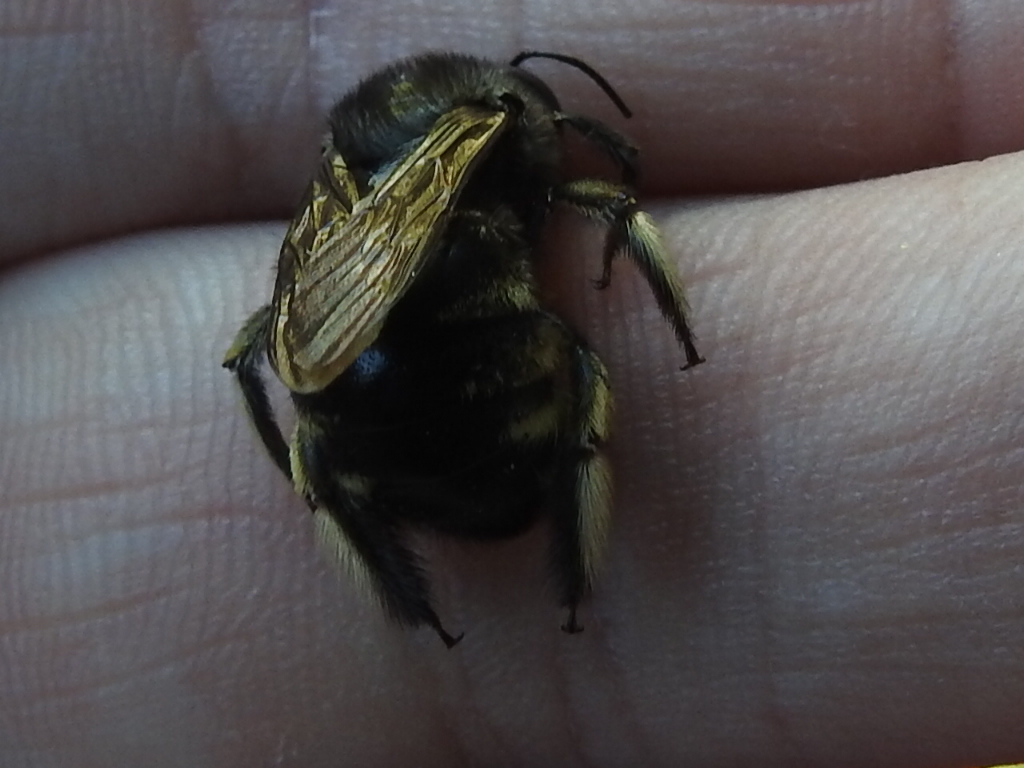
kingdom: Animalia
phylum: Arthropoda
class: Insecta
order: Hymenoptera
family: Apidae
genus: Xylocopa
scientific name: Xylocopa tabaniformis
